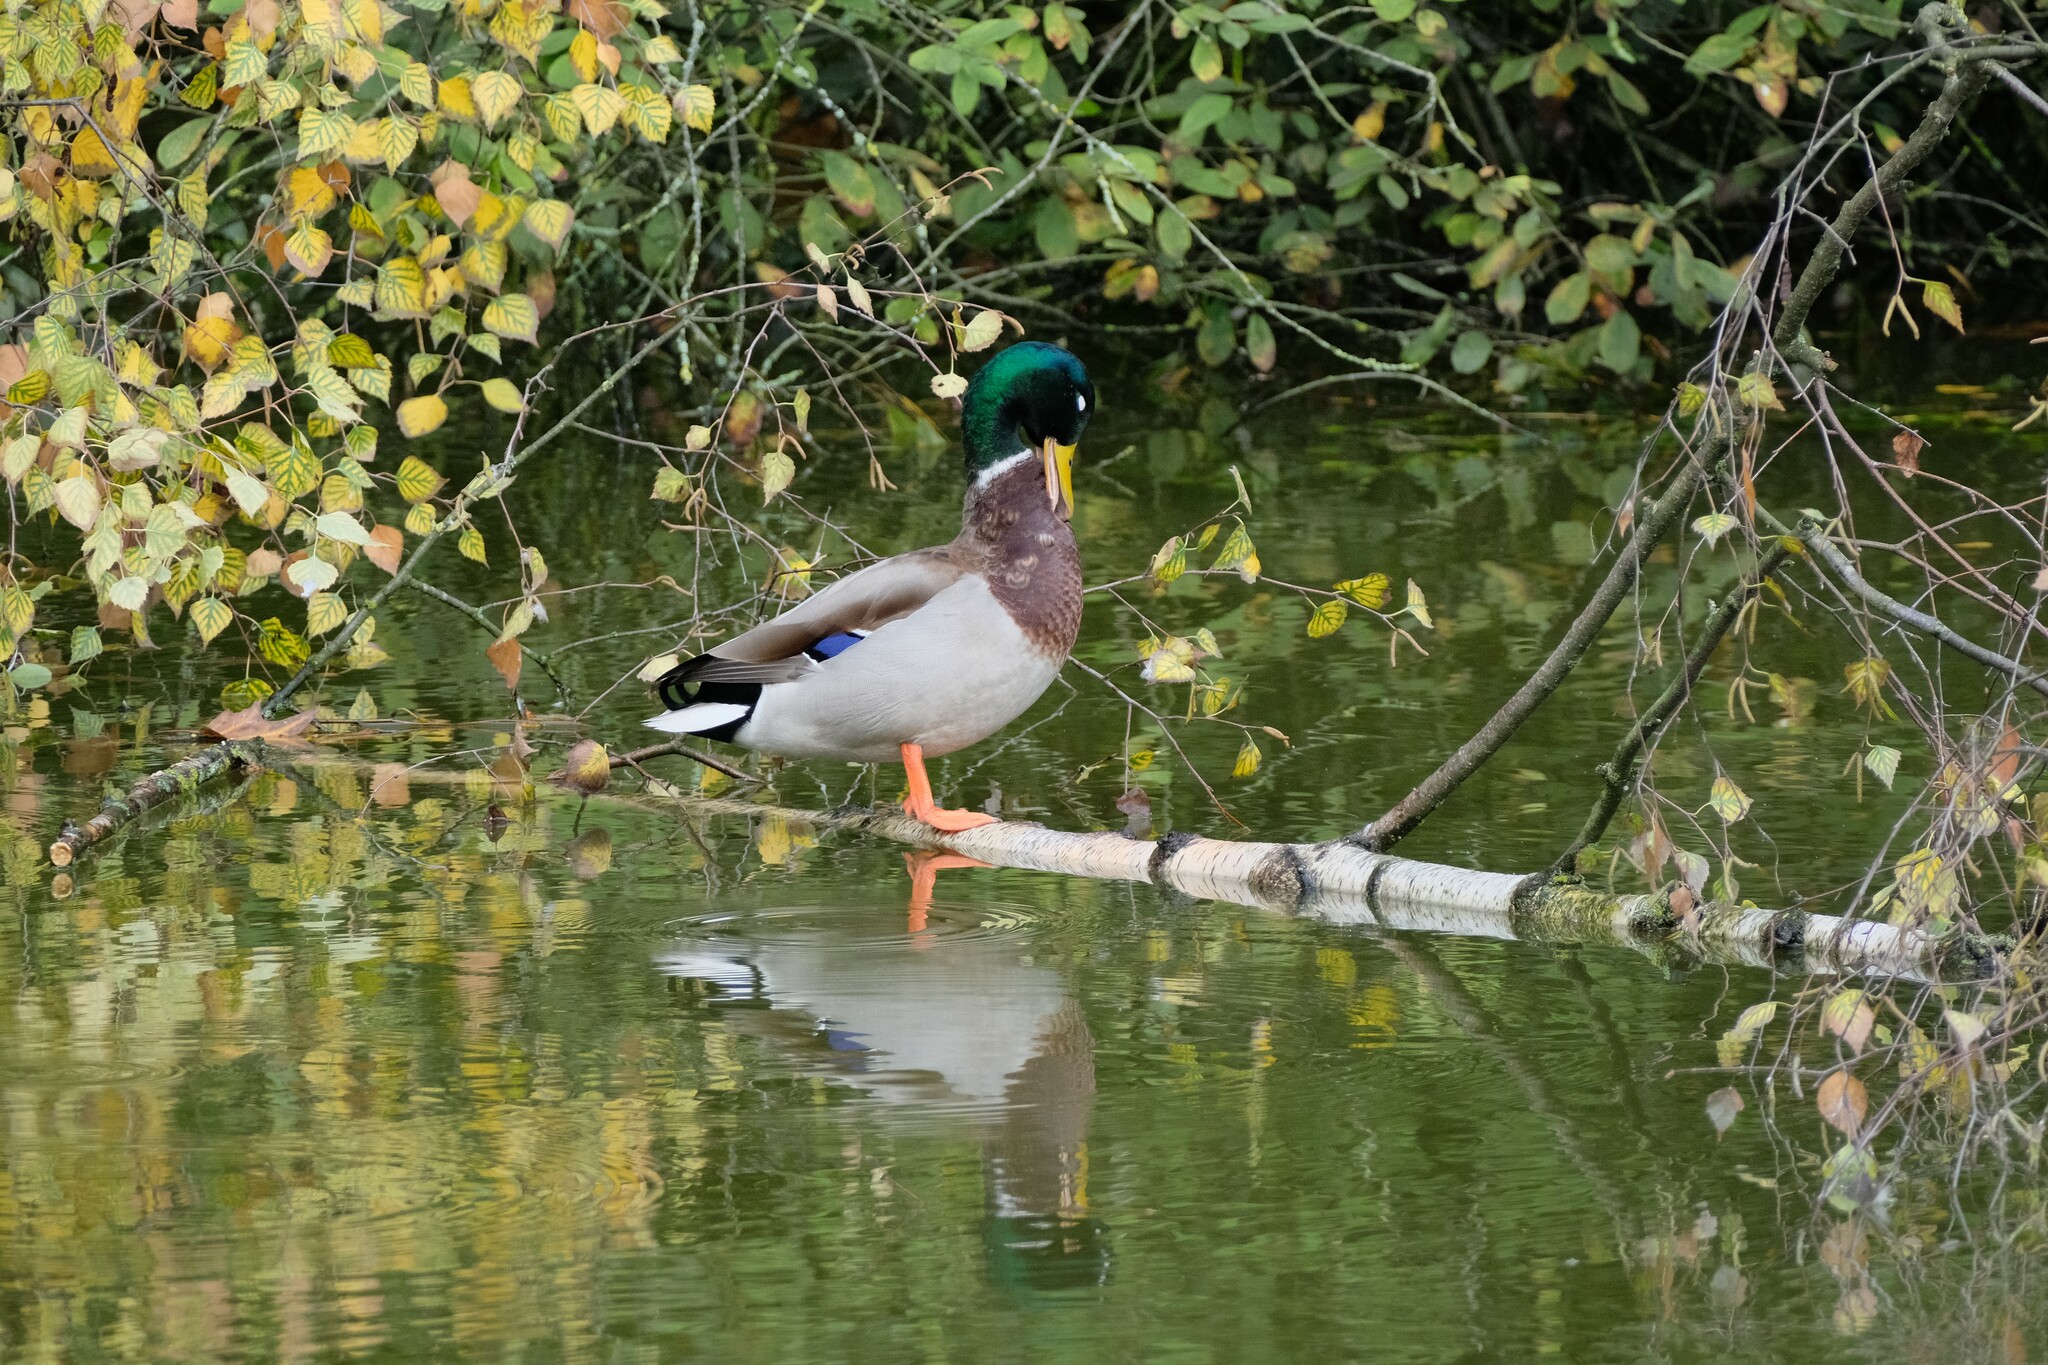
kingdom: Animalia
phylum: Chordata
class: Aves
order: Anseriformes
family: Anatidae
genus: Anas
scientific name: Anas platyrhynchos
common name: Mallard
